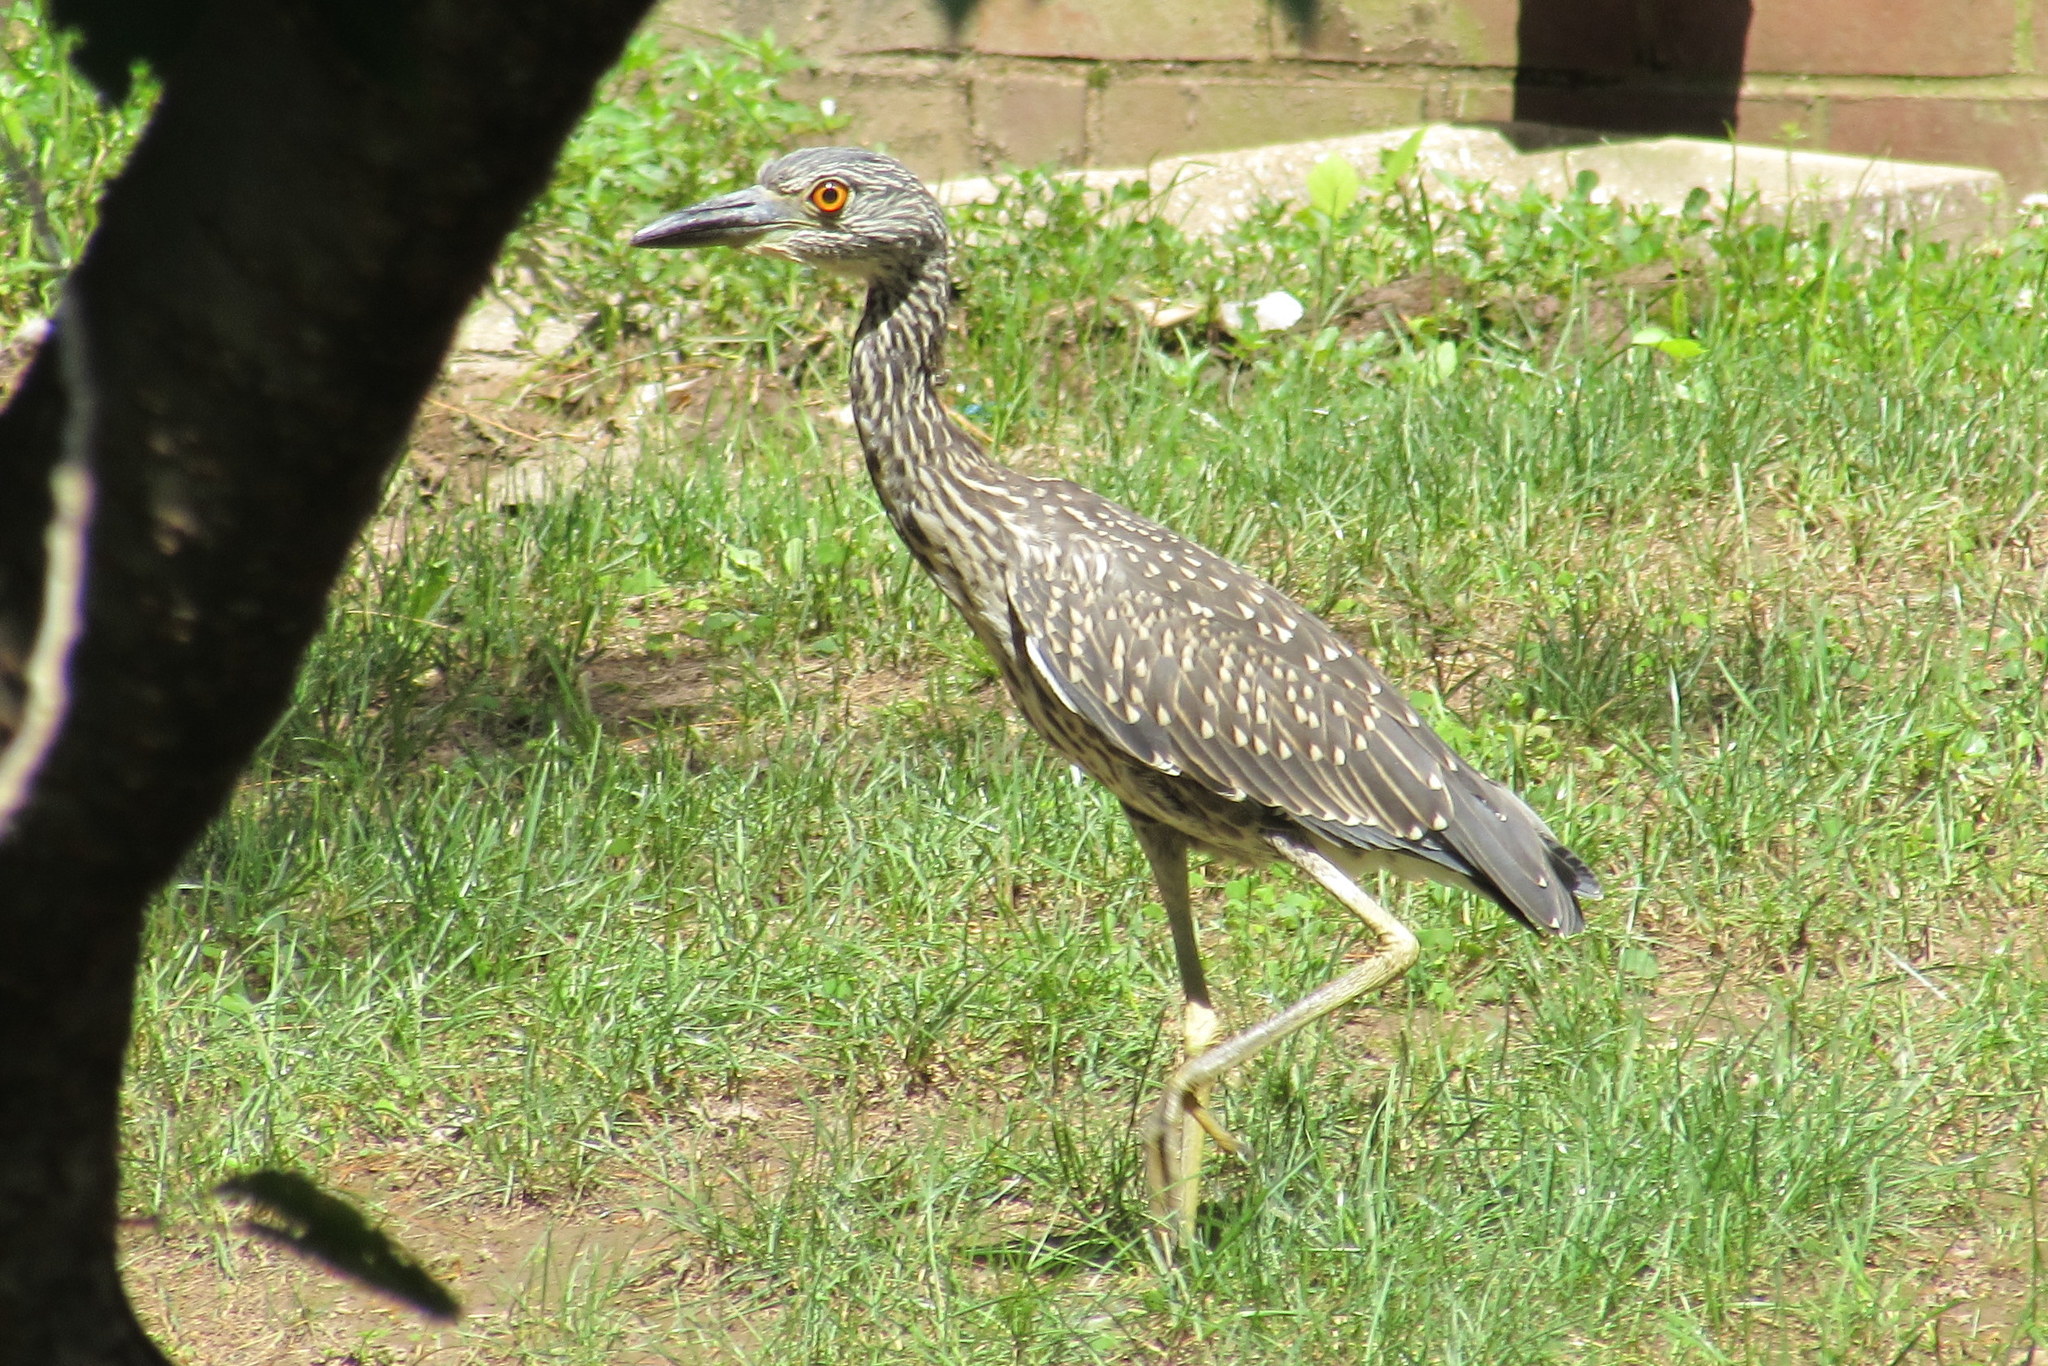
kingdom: Animalia
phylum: Chordata
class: Aves
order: Pelecaniformes
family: Ardeidae
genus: Nyctanassa
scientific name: Nyctanassa violacea
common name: Yellow-crowned night heron
